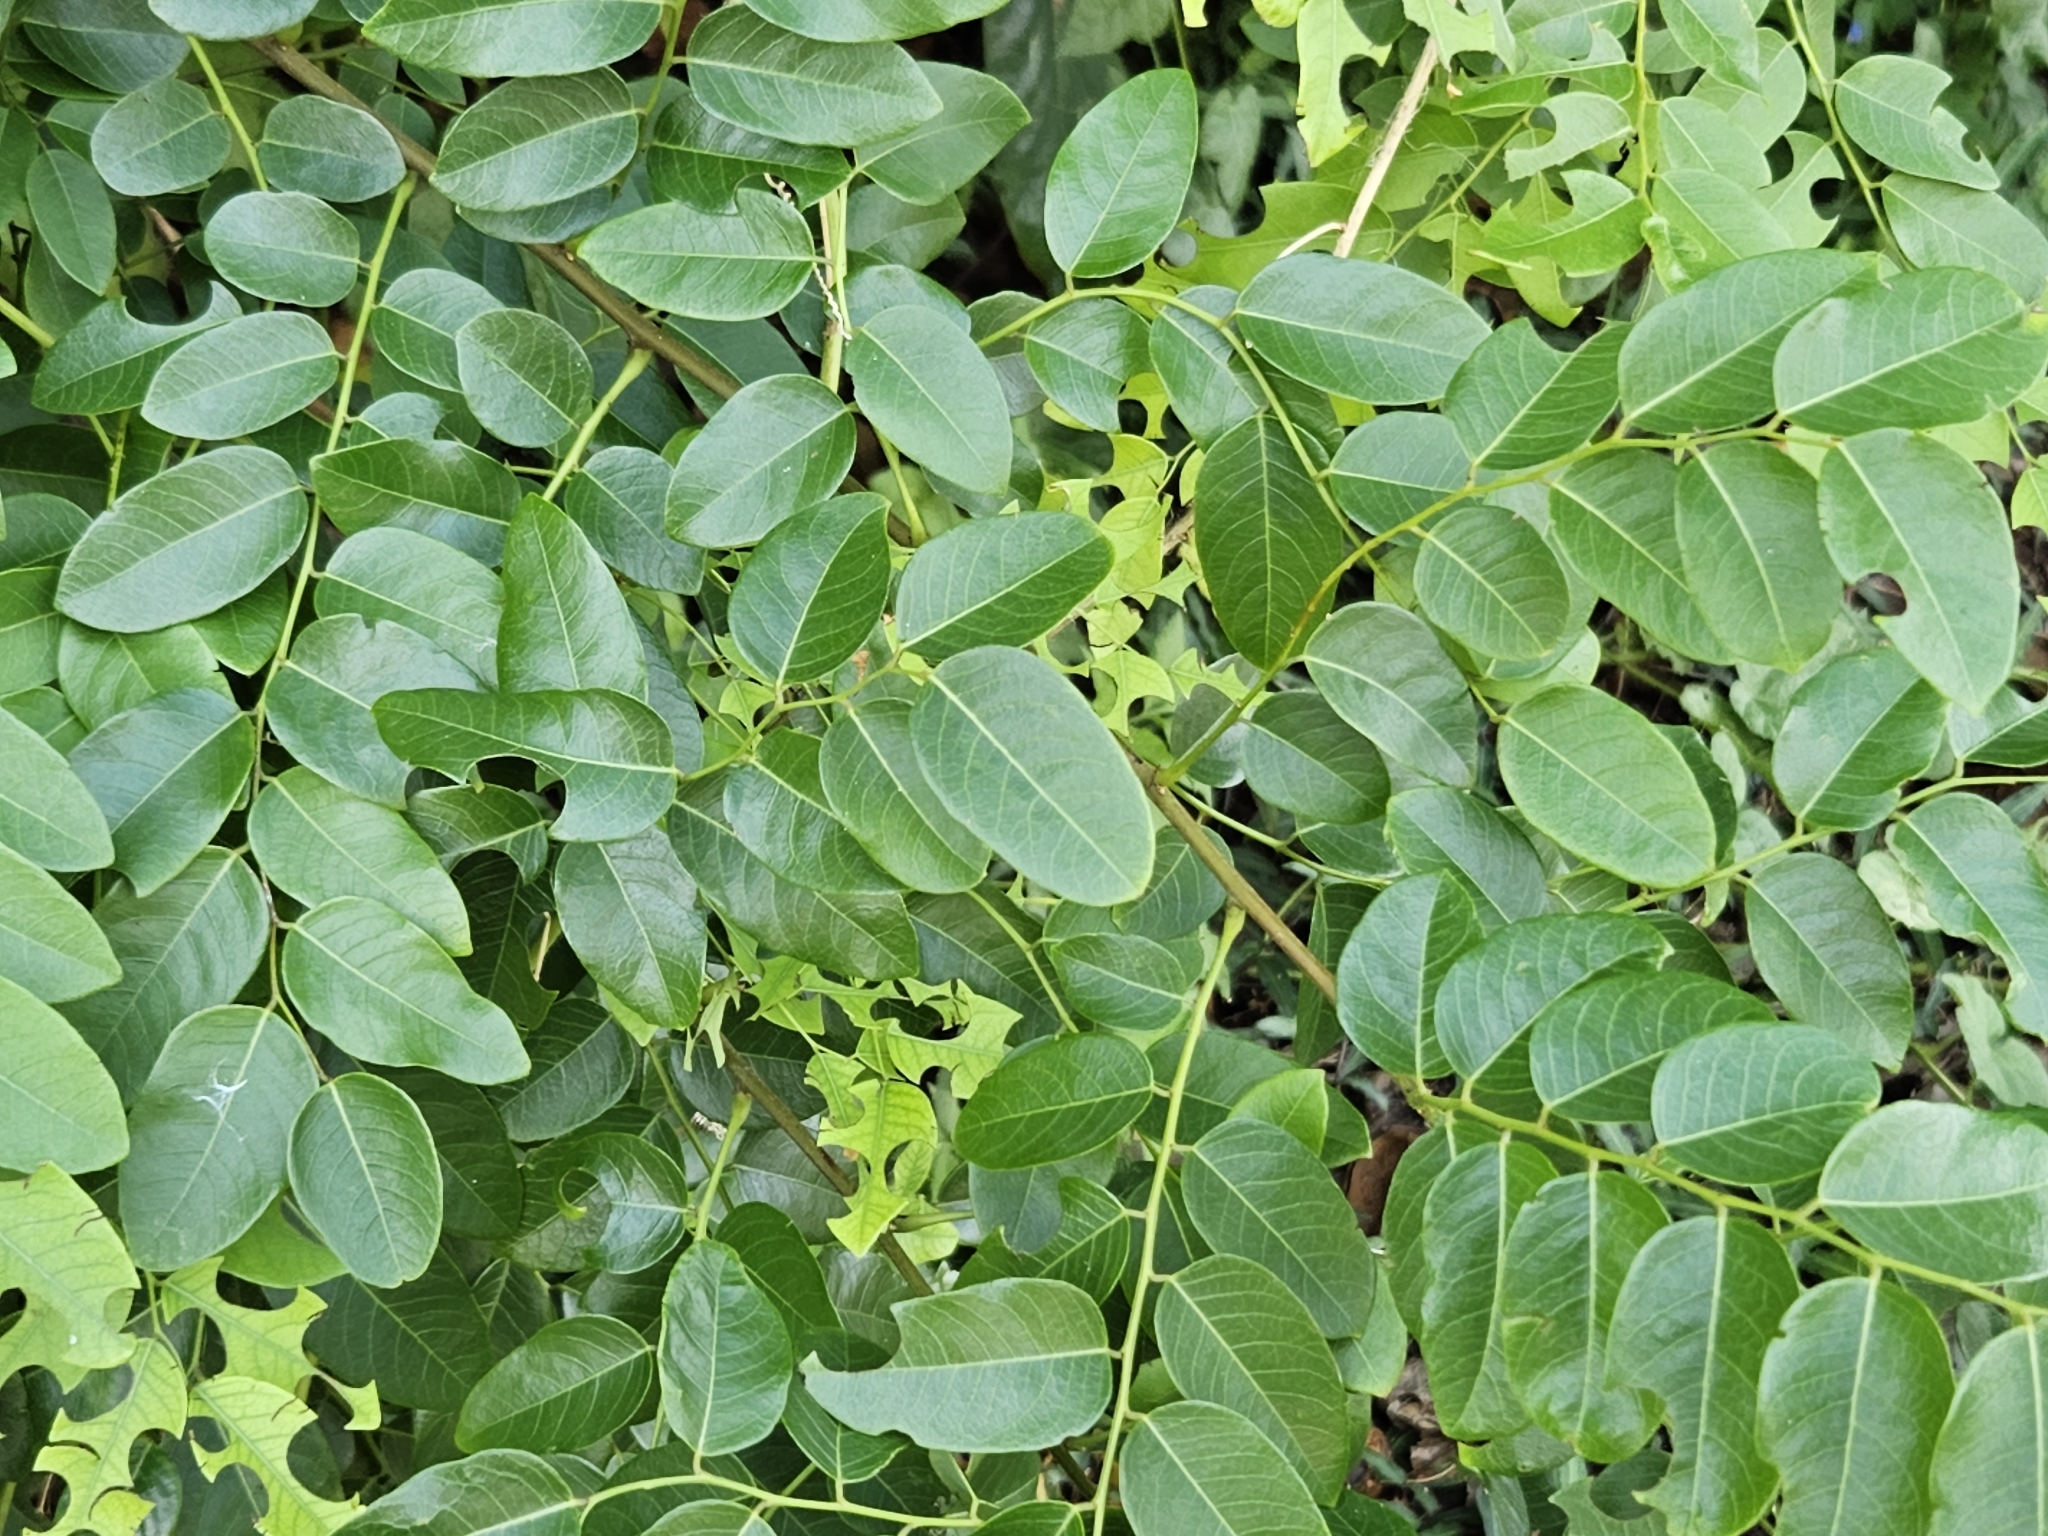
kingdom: Plantae
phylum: Tracheophyta
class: Magnoliopsida
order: Malpighiales
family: Phyllanthaceae
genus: Phyllanthus
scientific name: Phyllanthus reticulatus
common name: Potato bush
